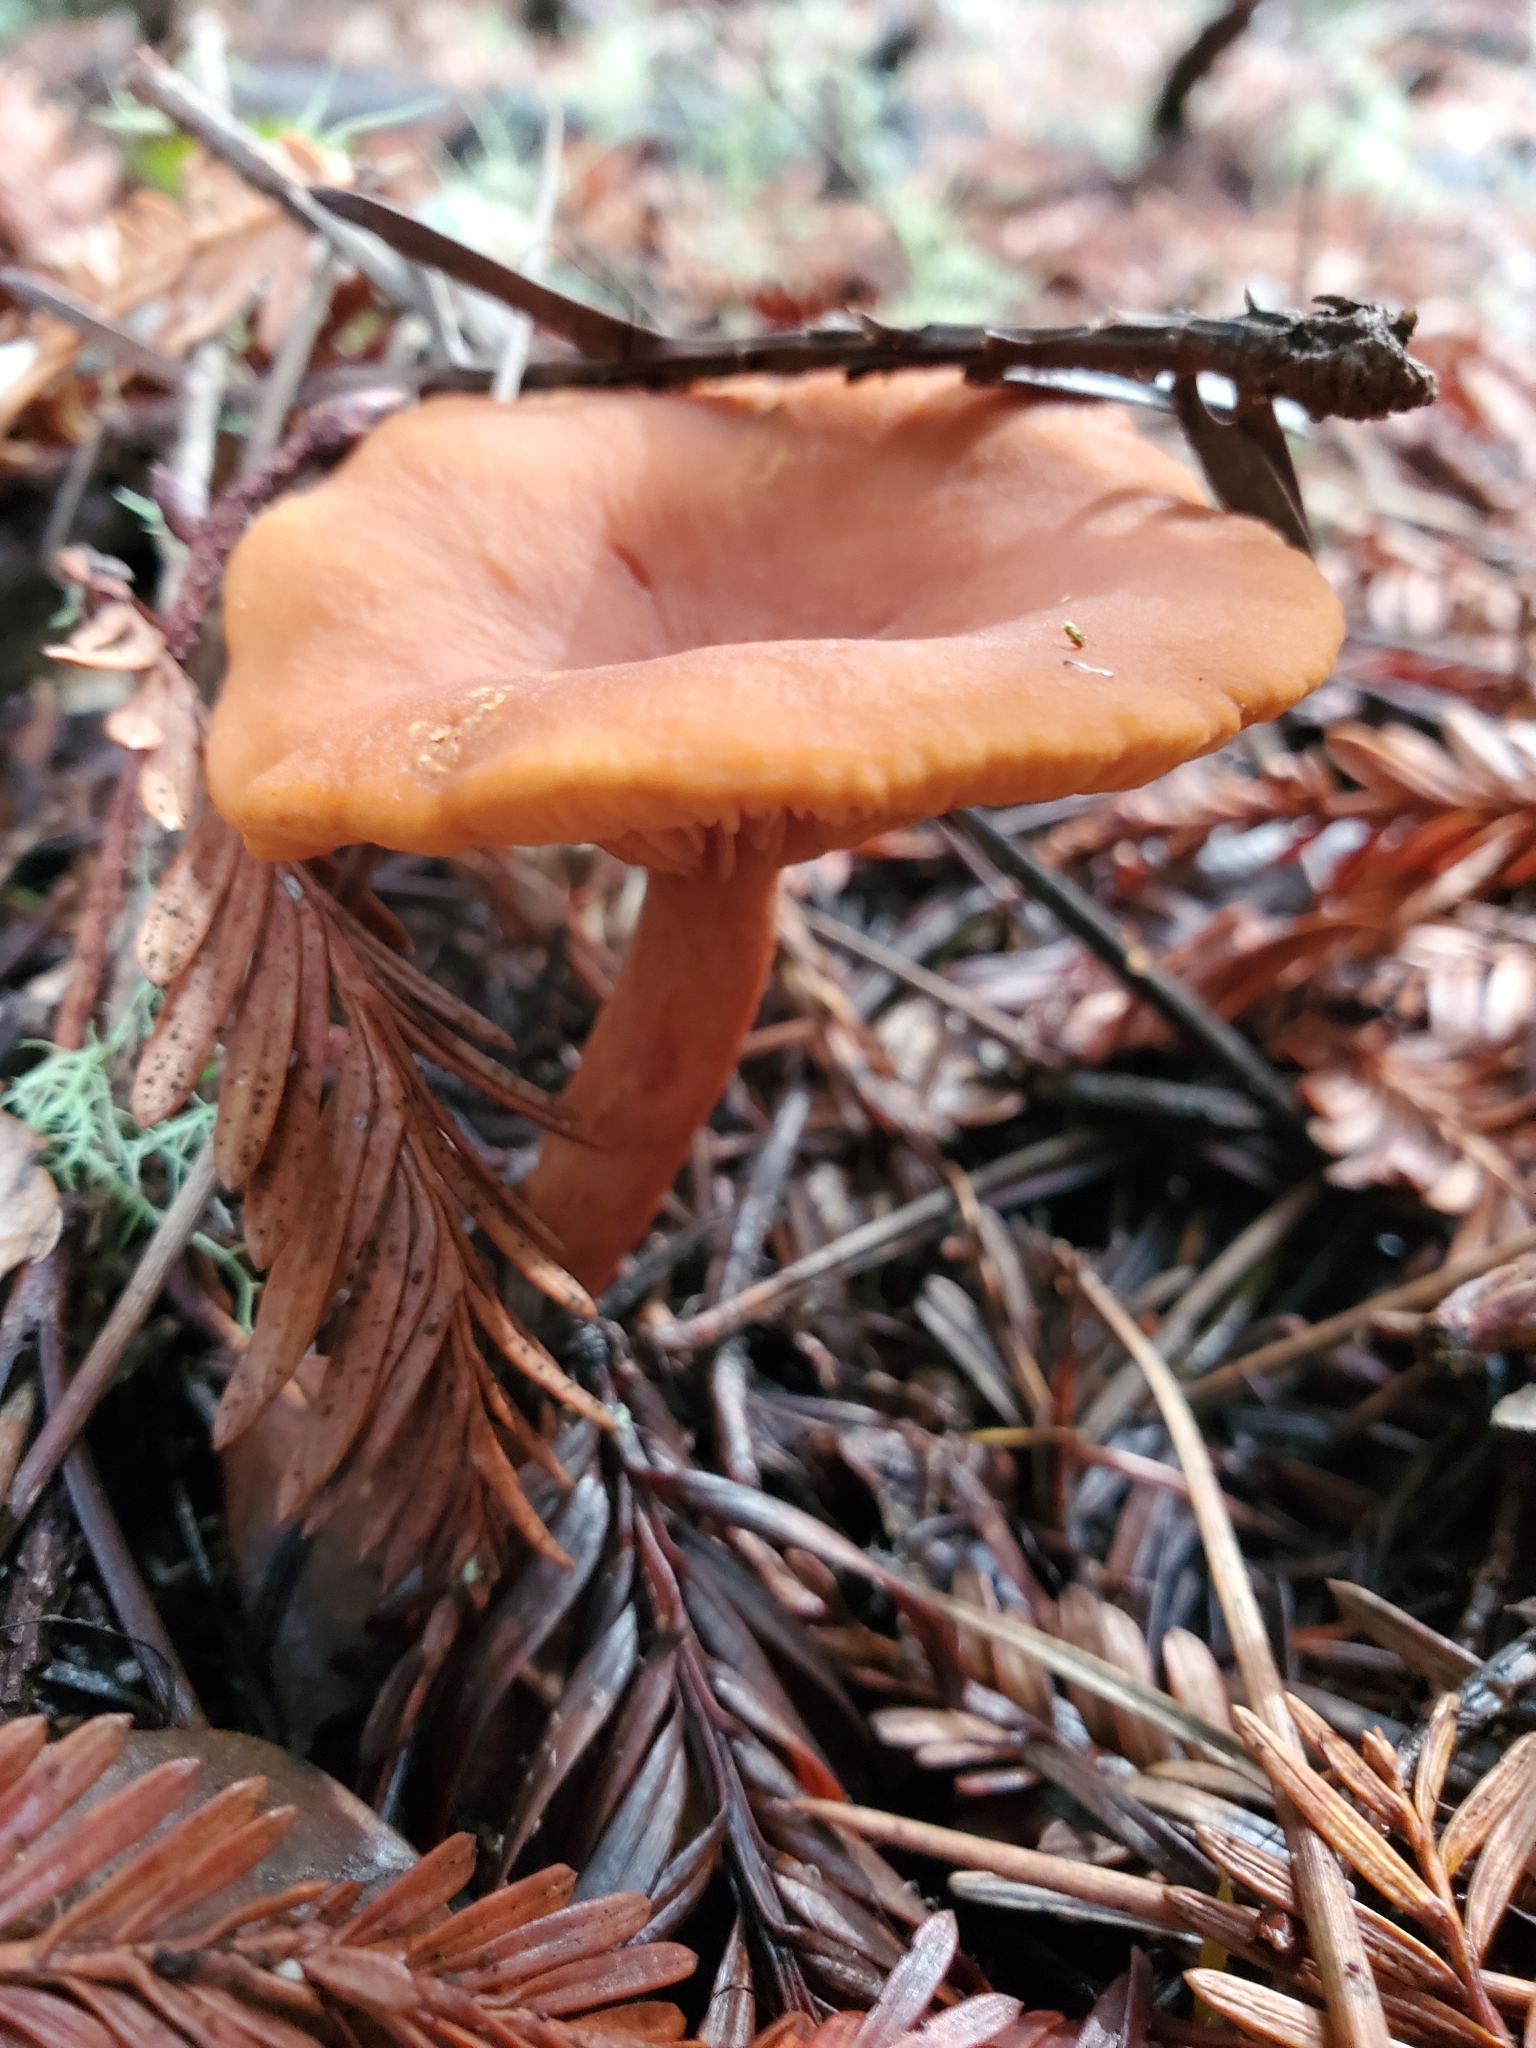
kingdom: Fungi
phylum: Basidiomycota
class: Agaricomycetes
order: Russulales
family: Russulaceae
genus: Lactarius
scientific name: Lactarius rubidus
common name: Candy cap
